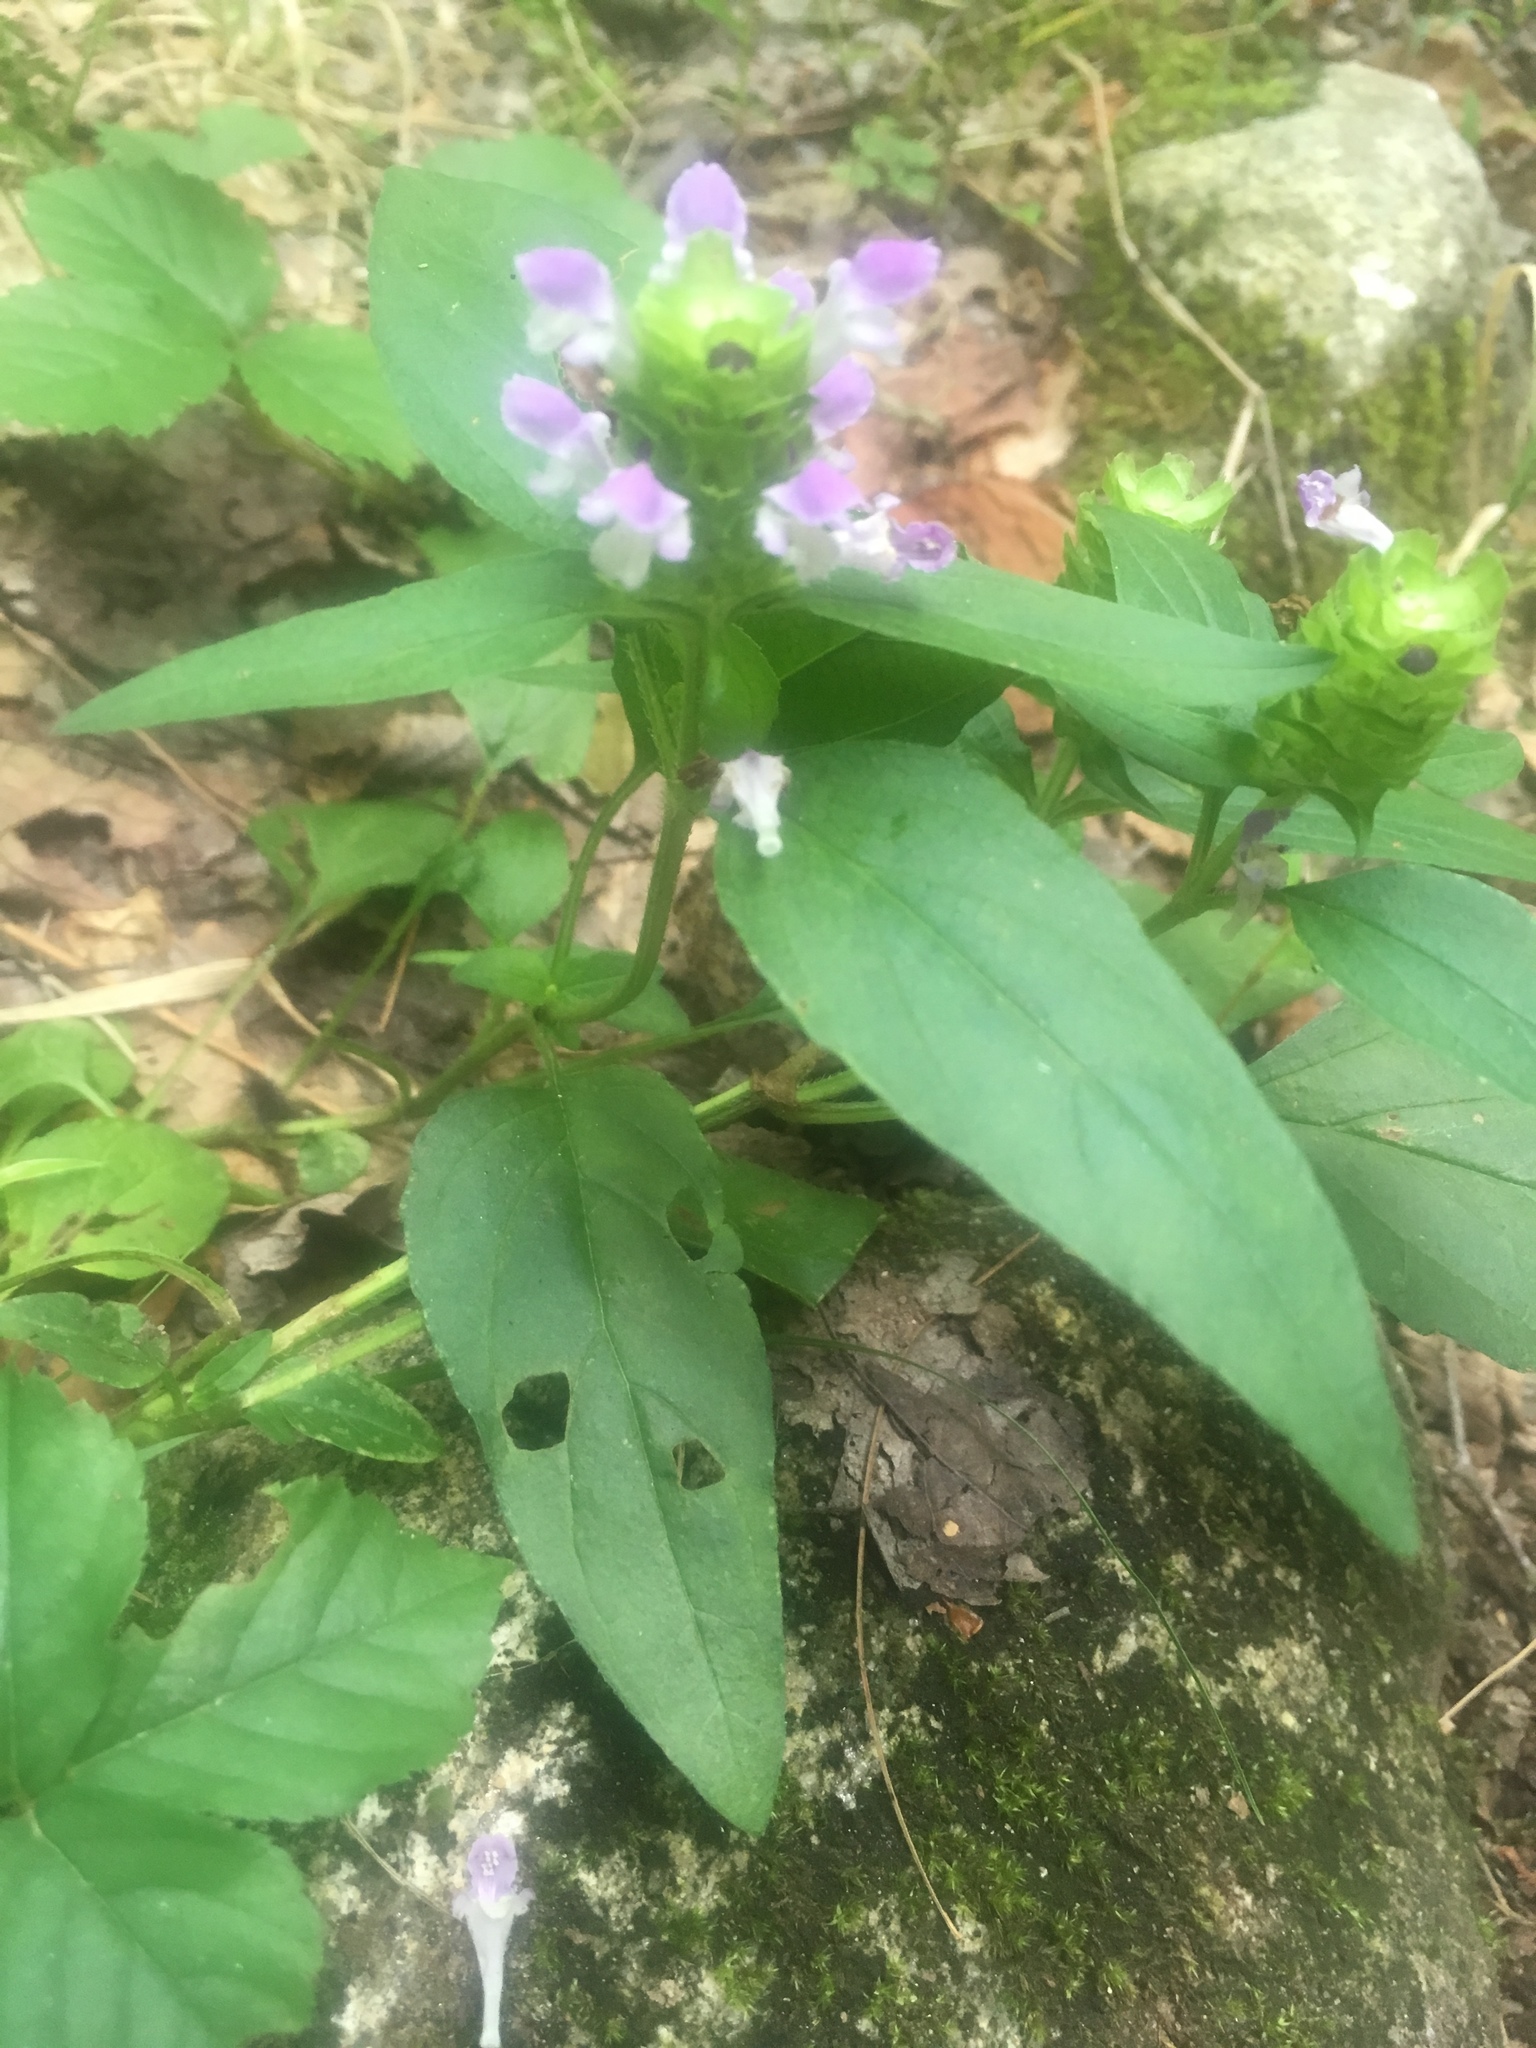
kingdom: Plantae
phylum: Tracheophyta
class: Magnoliopsida
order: Lamiales
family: Lamiaceae
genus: Prunella
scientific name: Prunella vulgaris
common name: Heal-all
